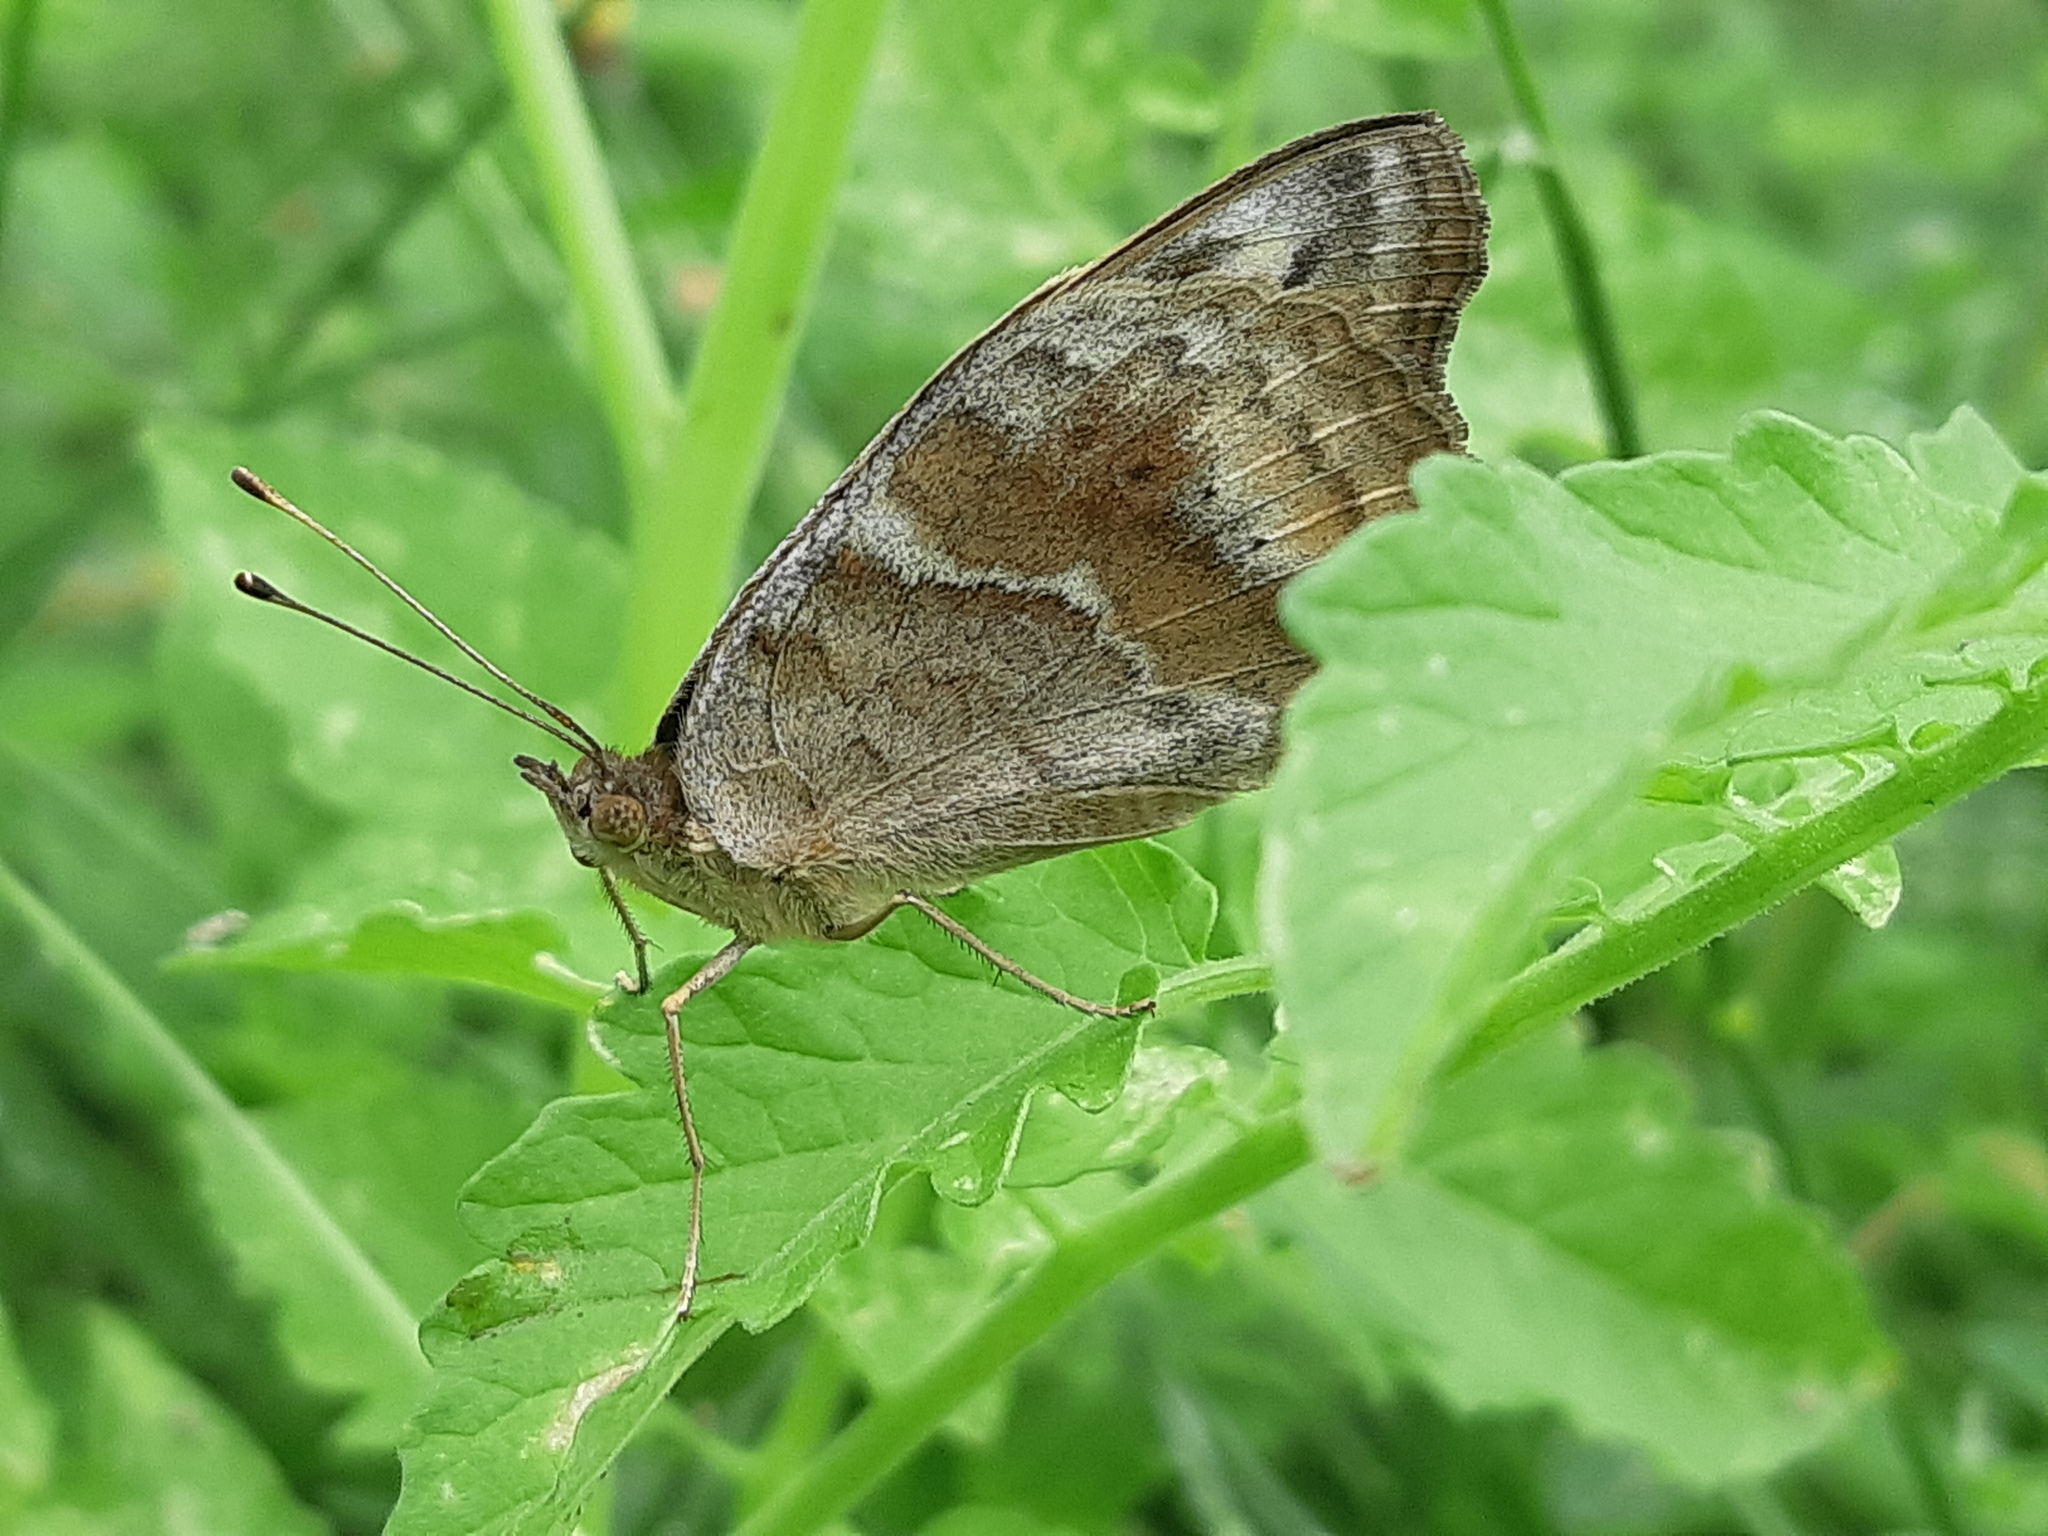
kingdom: Animalia
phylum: Arthropoda
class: Insecta
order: Lepidoptera
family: Nymphalidae
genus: Junonia
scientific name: Junonia lavinia
